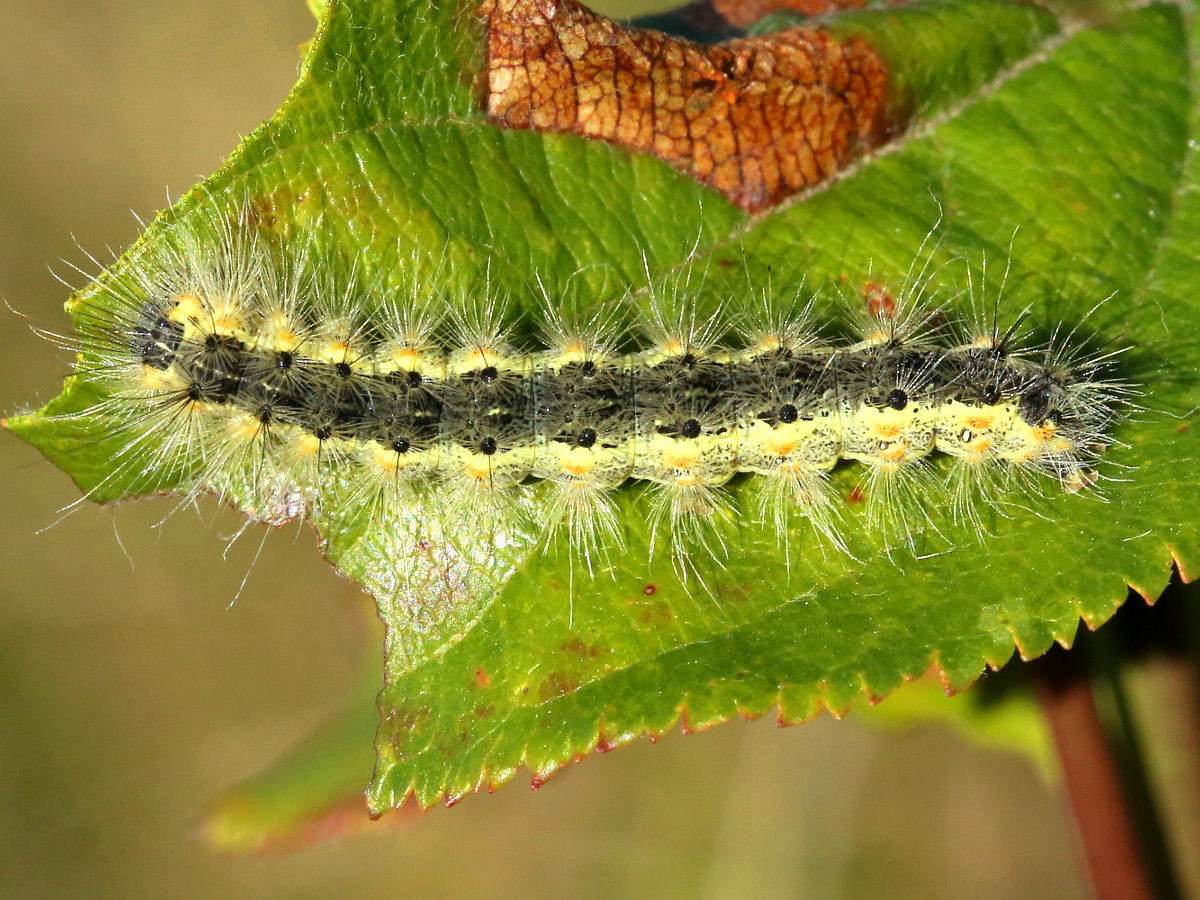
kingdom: Animalia
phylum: Arthropoda
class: Insecta
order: Lepidoptera
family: Erebidae
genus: Hyphantria
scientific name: Hyphantria cunea
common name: American white moth
